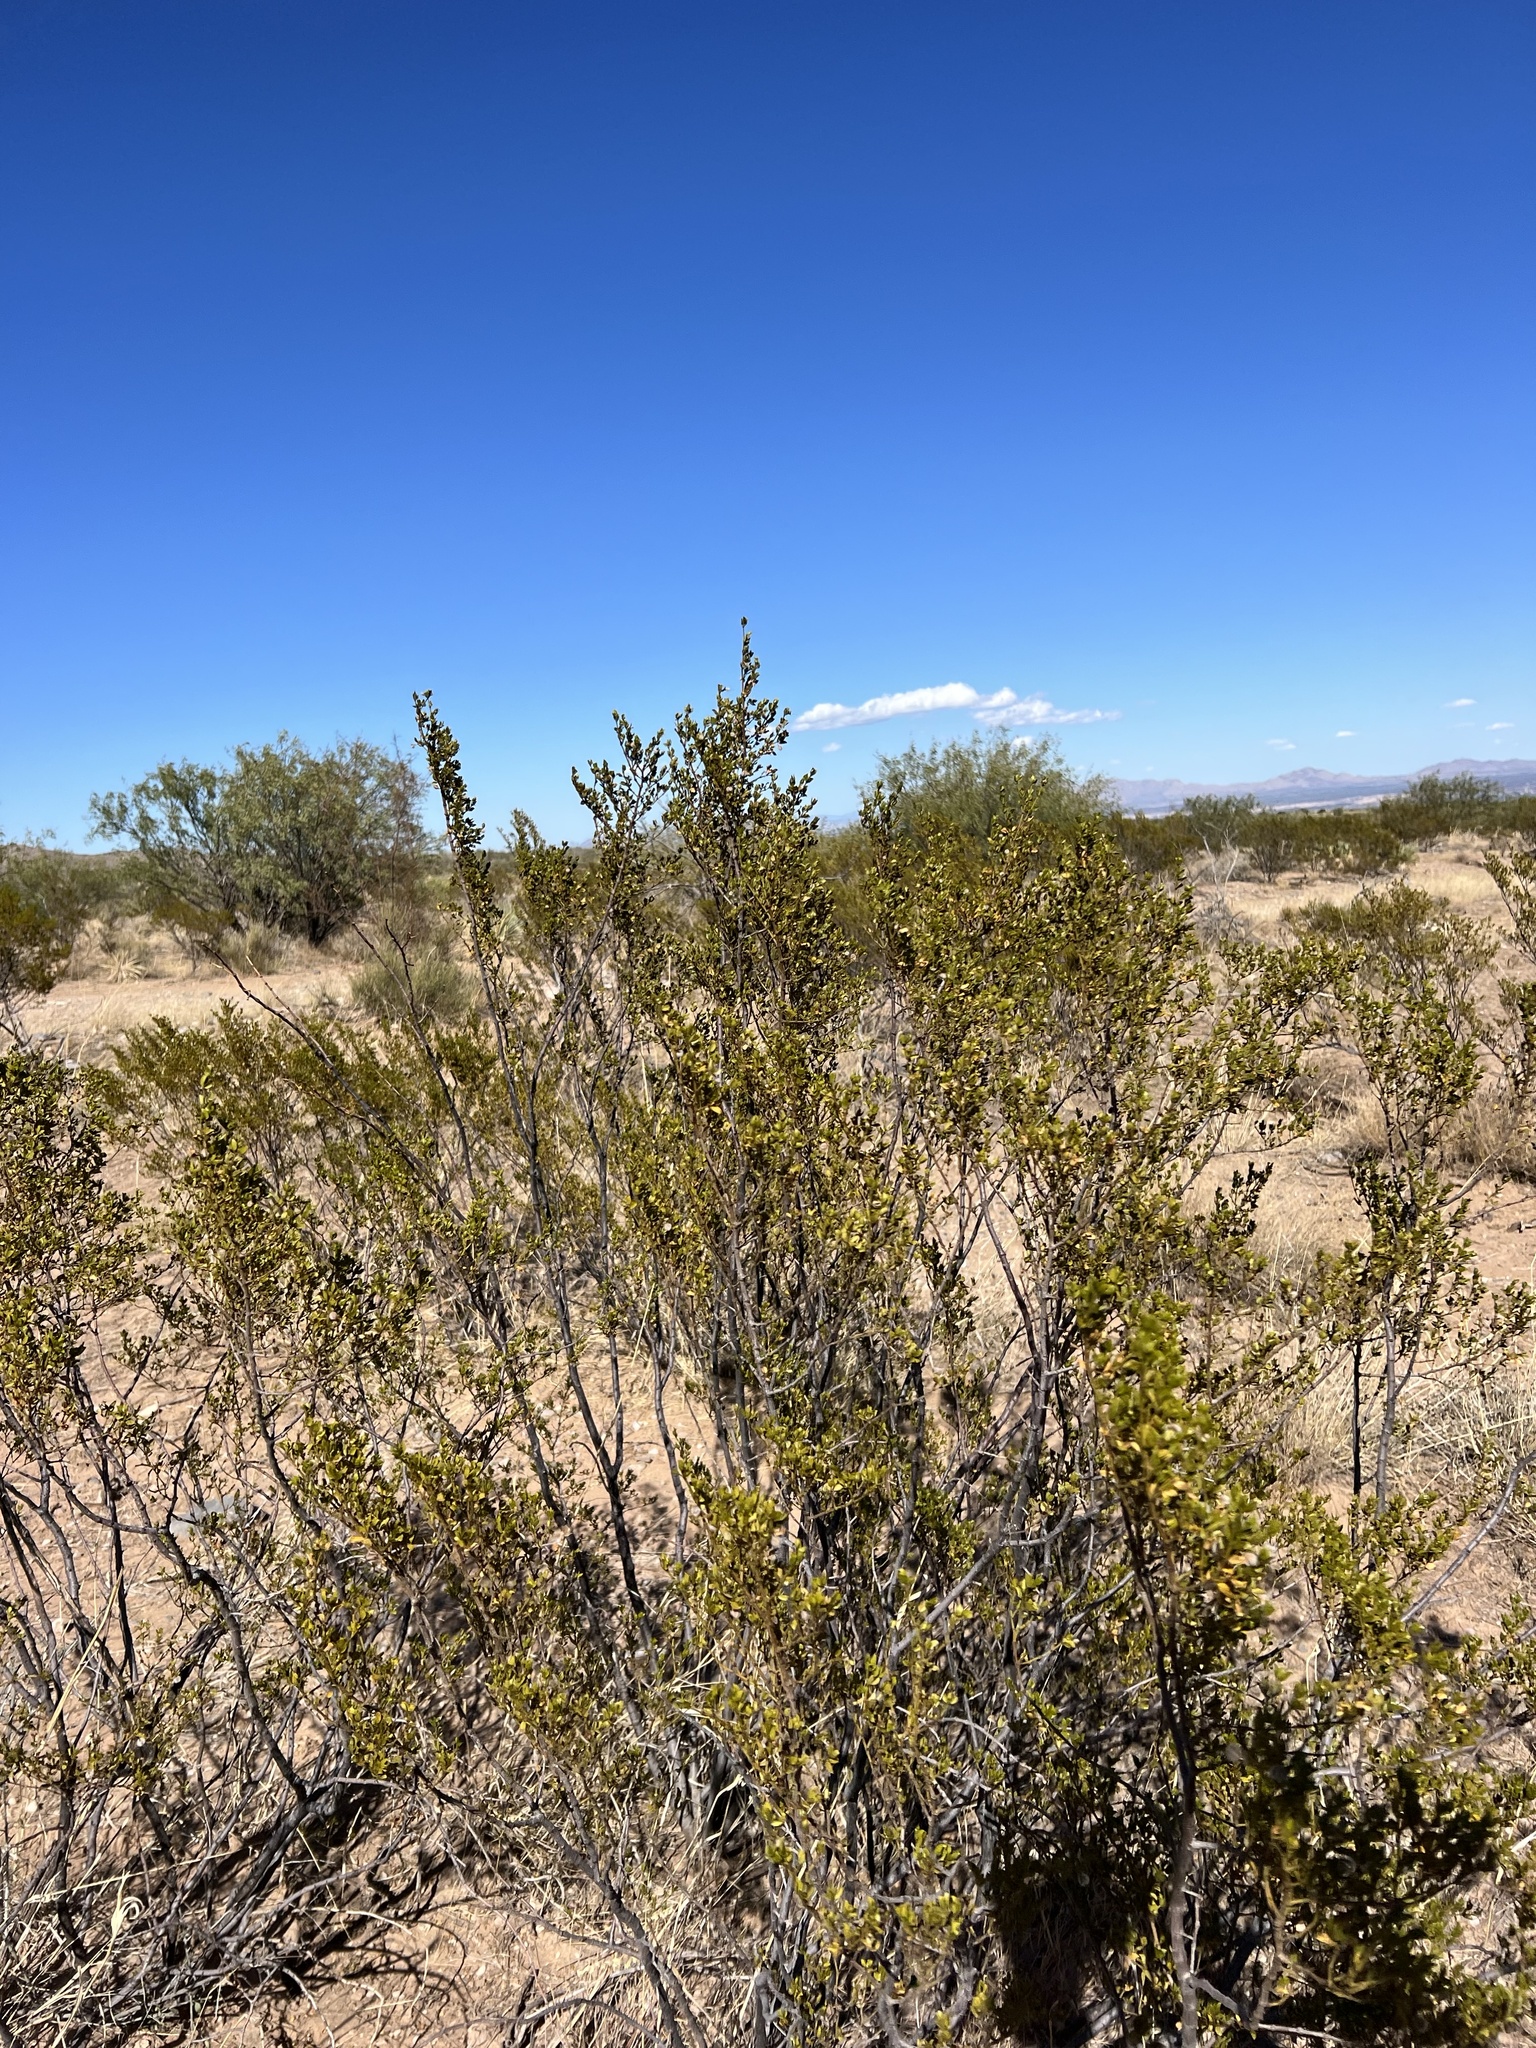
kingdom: Plantae
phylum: Tracheophyta
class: Magnoliopsida
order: Zygophyllales
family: Zygophyllaceae
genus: Larrea
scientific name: Larrea tridentata
